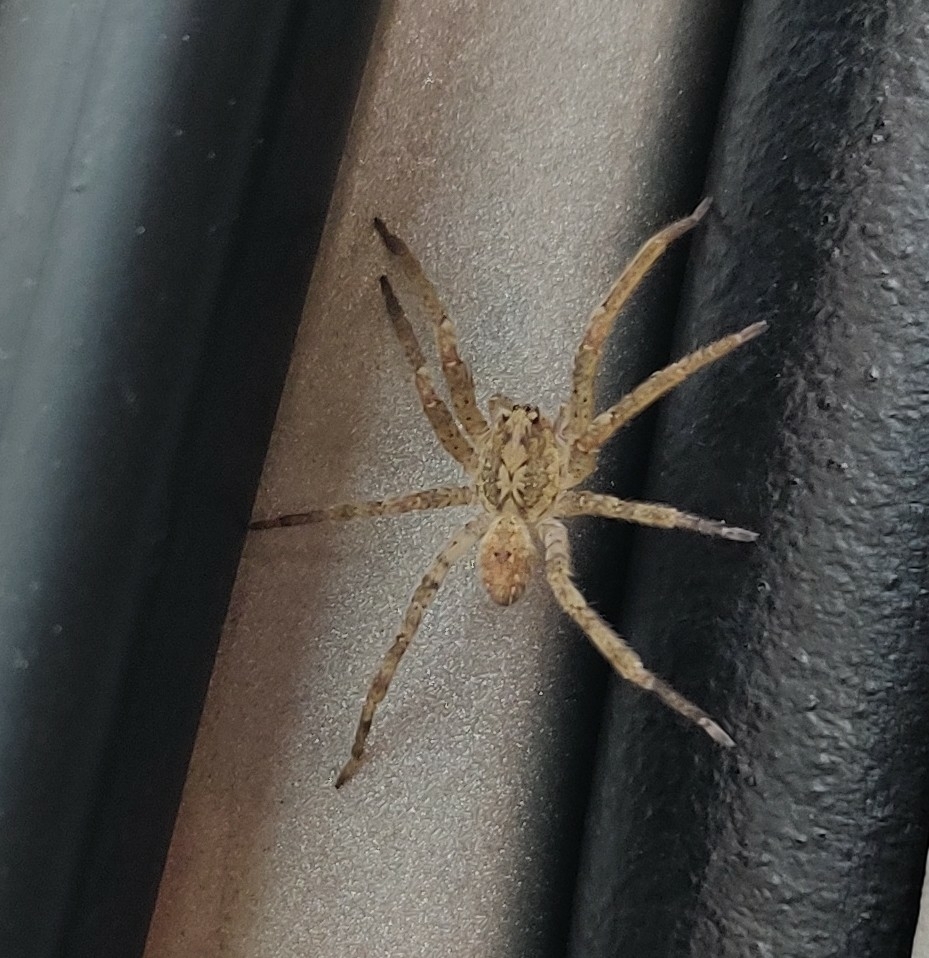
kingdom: Animalia
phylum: Arthropoda
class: Arachnida
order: Araneae
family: Zoropsidae
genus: Zoropsis
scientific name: Zoropsis spinimana
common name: Zoropsid spider
